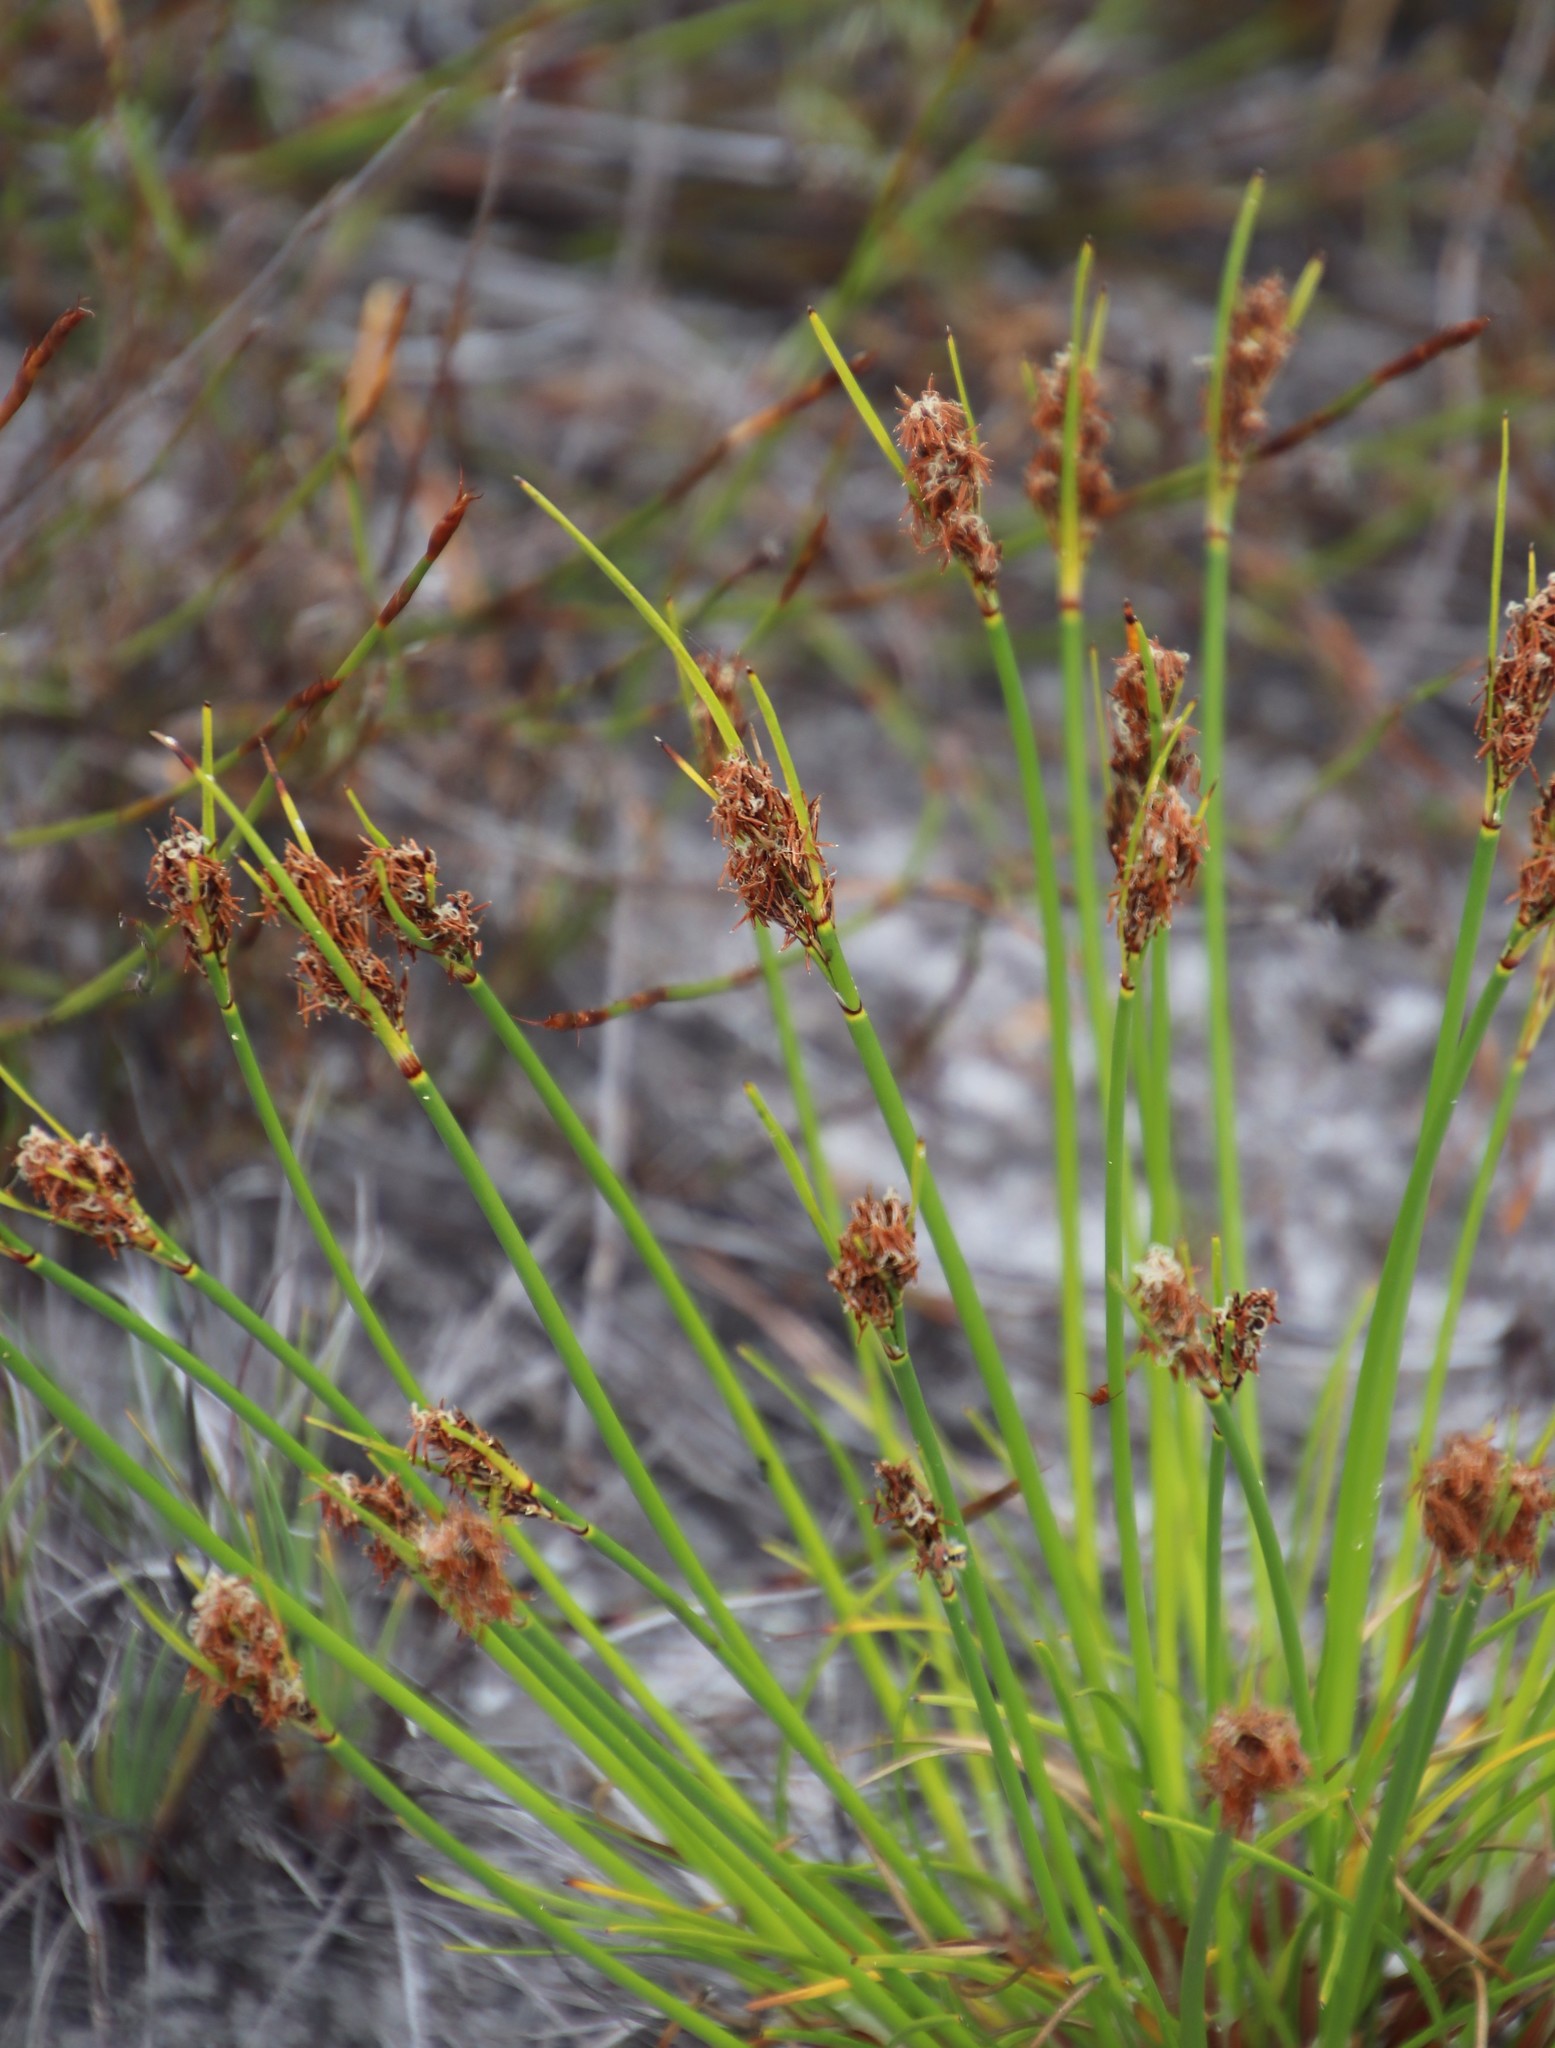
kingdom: Plantae
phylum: Tracheophyta
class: Liliopsida
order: Poales
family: Cyperaceae
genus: Schoenus
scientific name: Schoenus auritus
